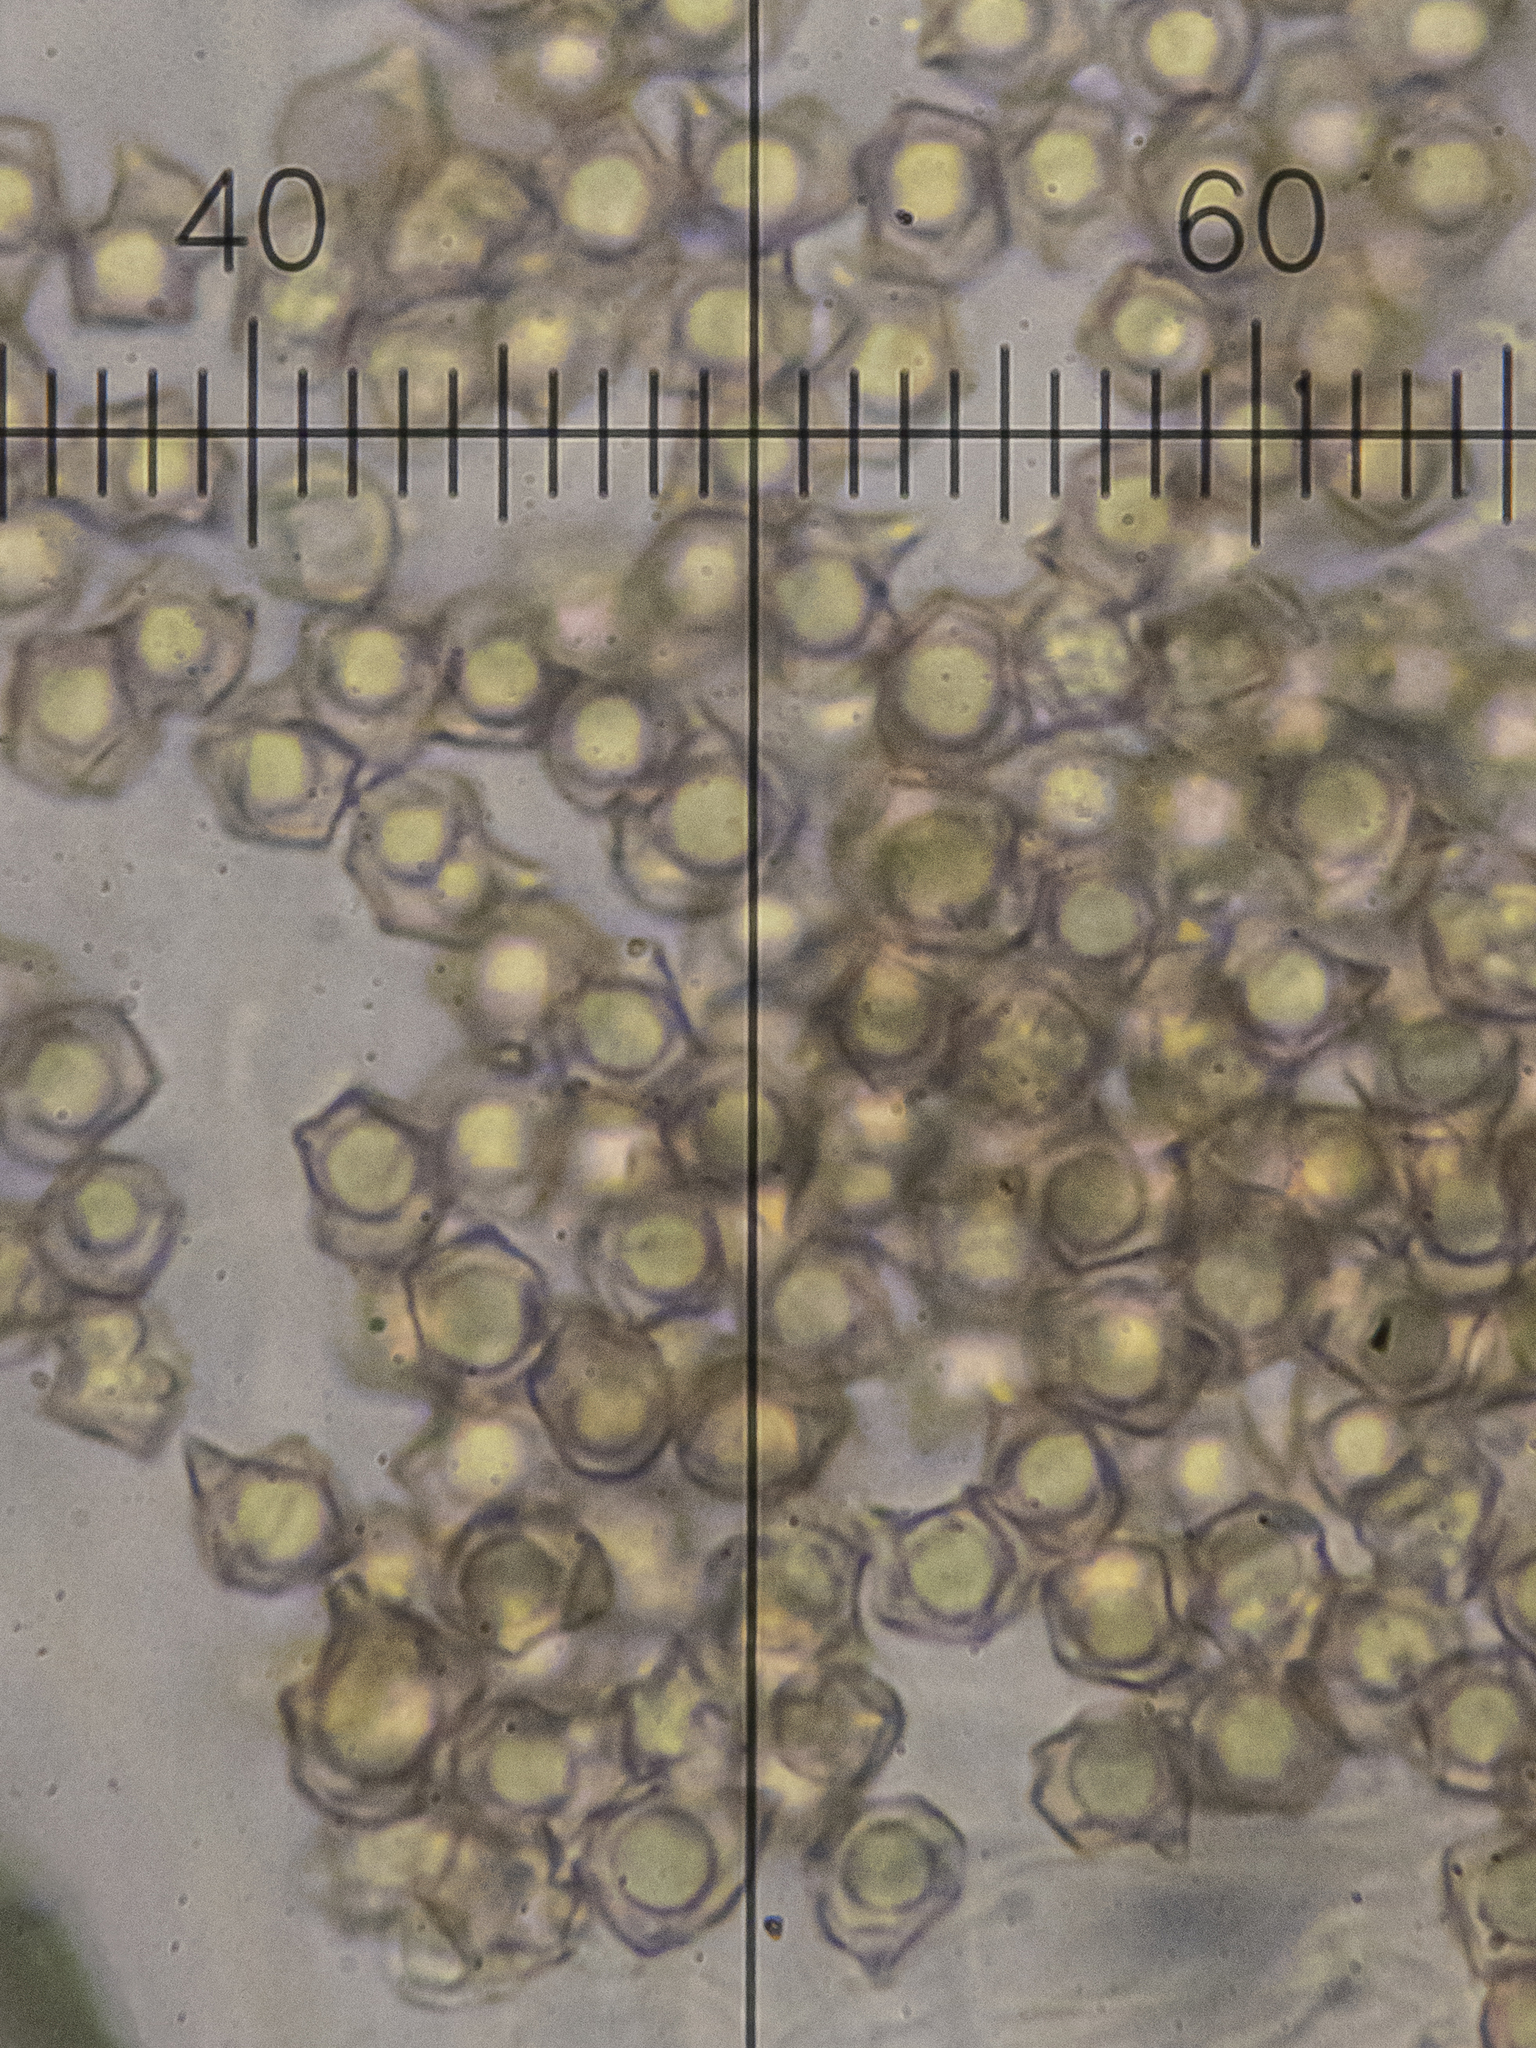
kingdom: Fungi
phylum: Basidiomycota
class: Agaricomycetes
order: Agaricales
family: Entolomataceae
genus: Entoloma
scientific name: Entoloma lividoalbum
